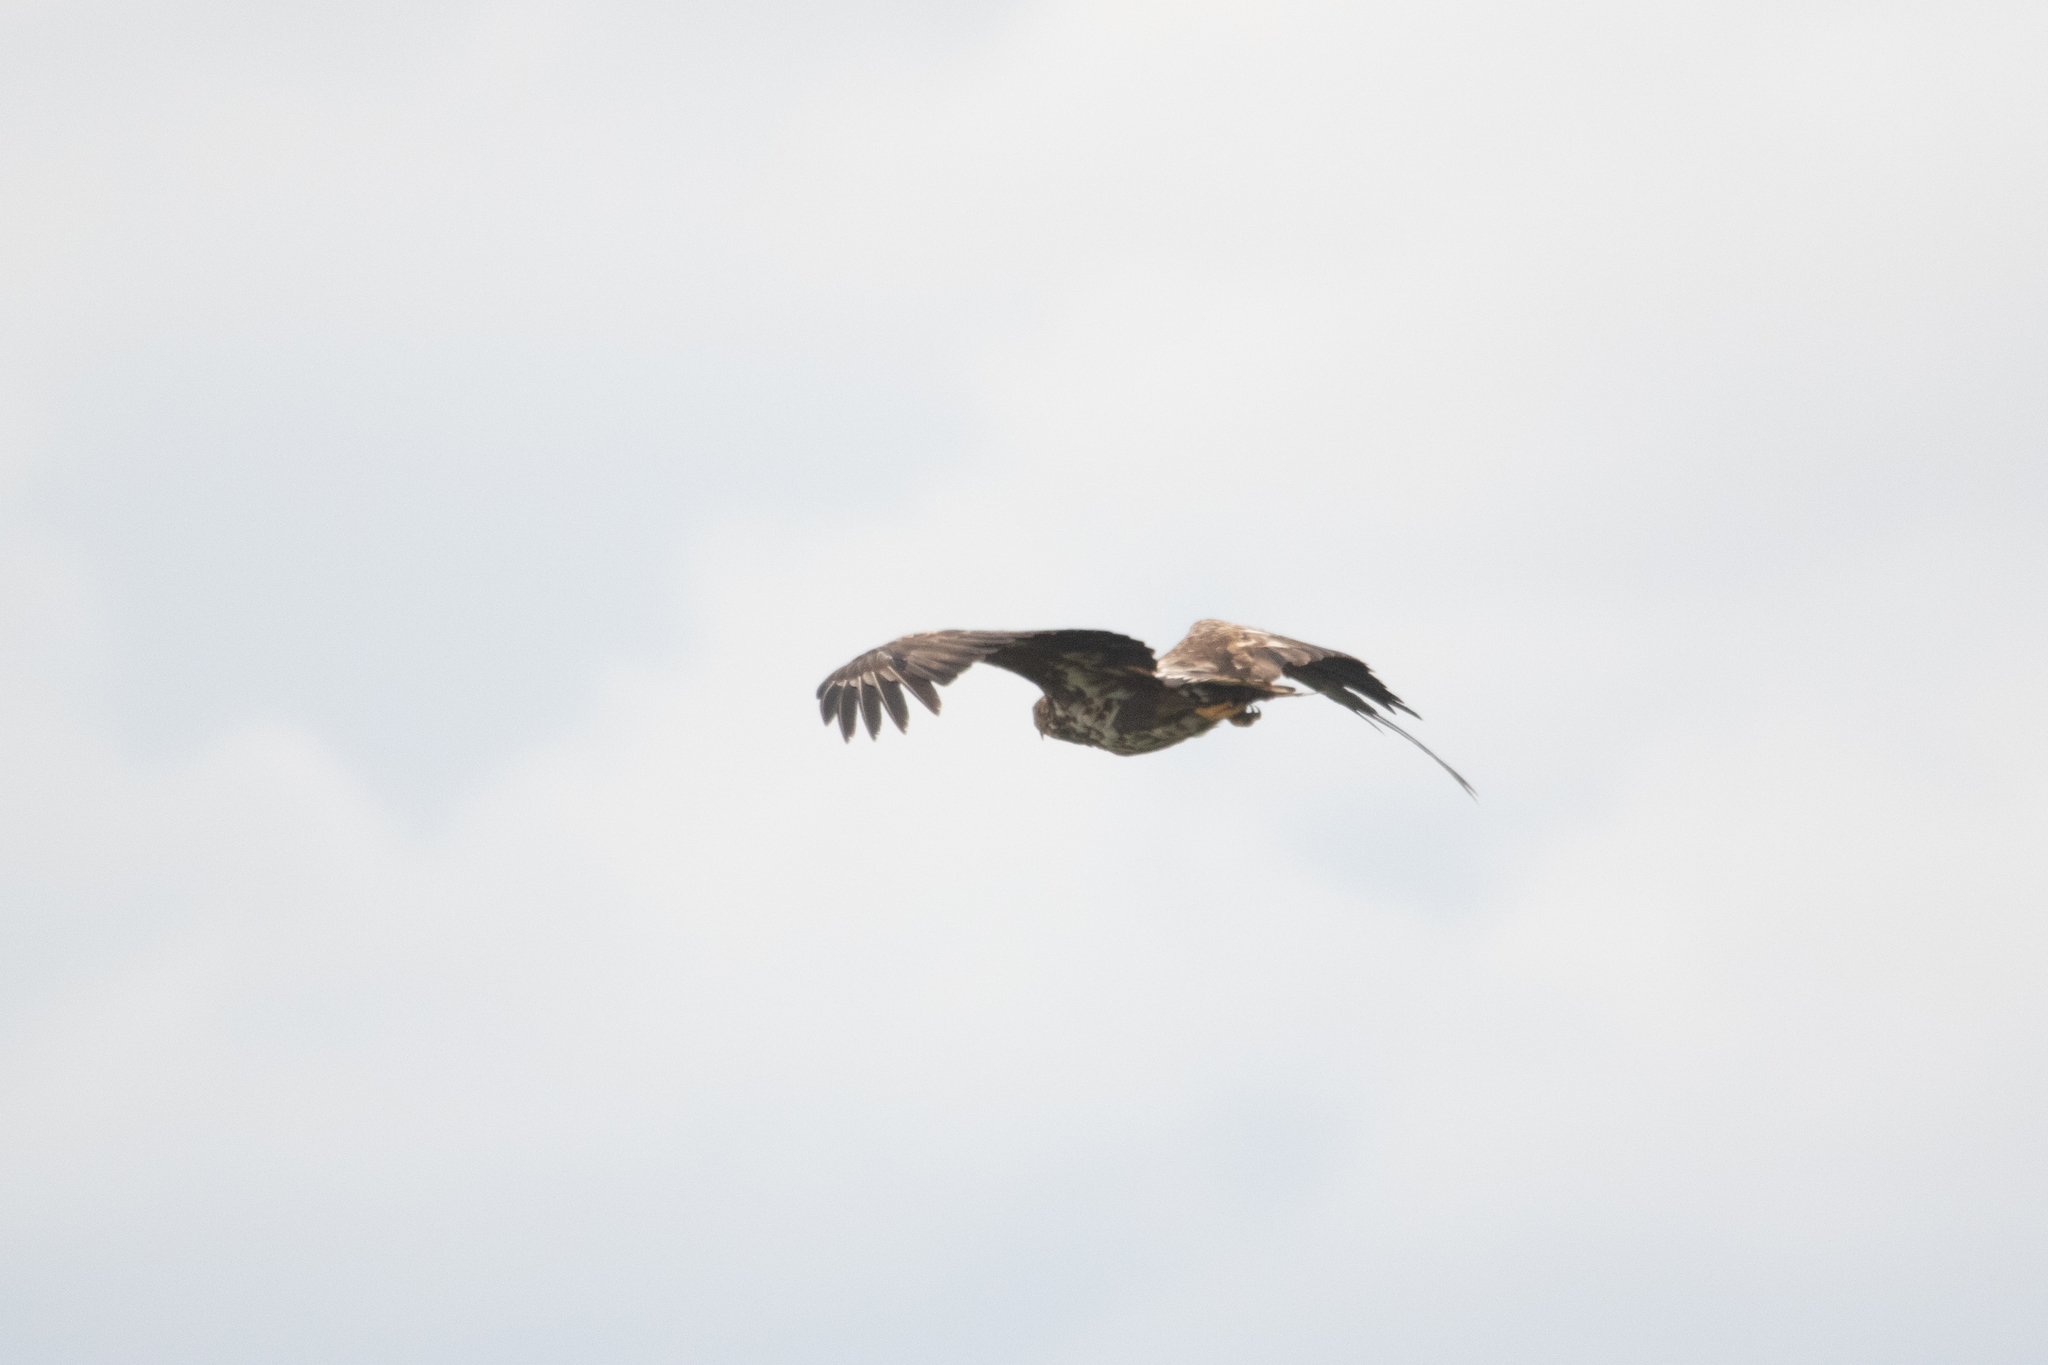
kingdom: Animalia
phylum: Chordata
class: Aves
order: Accipitriformes
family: Accipitridae
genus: Haliaeetus
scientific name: Haliaeetus albicilla
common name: White-tailed eagle
